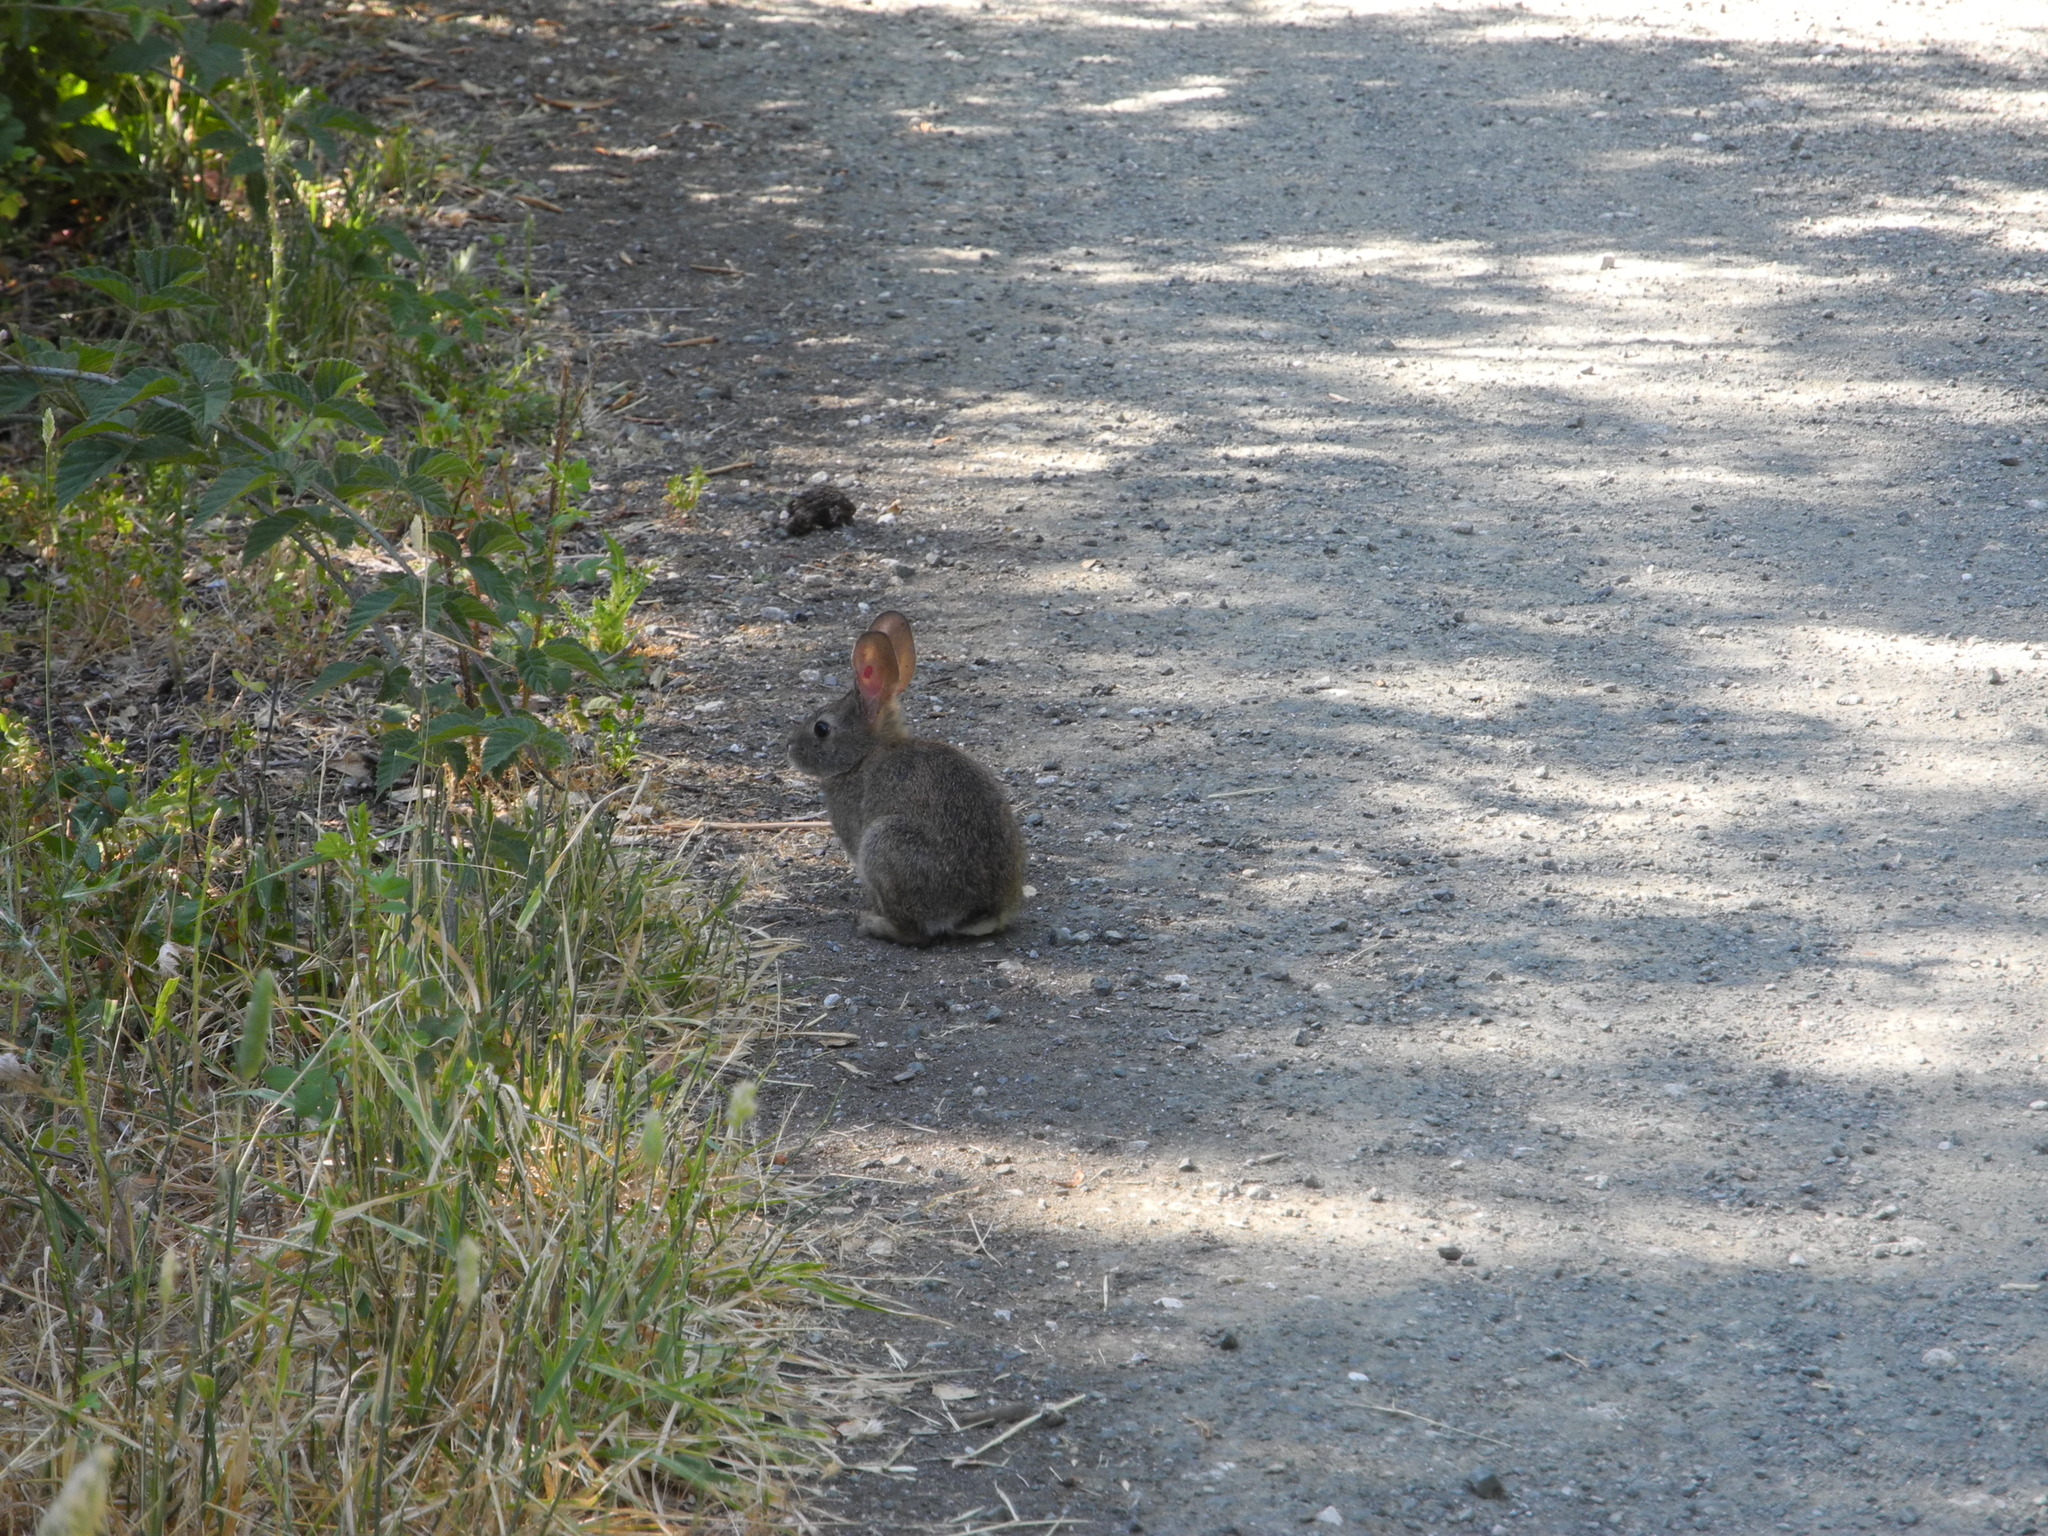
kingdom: Animalia
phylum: Chordata
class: Mammalia
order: Lagomorpha
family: Leporidae
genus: Sylvilagus
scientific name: Sylvilagus bachmani
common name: Brush rabbit
